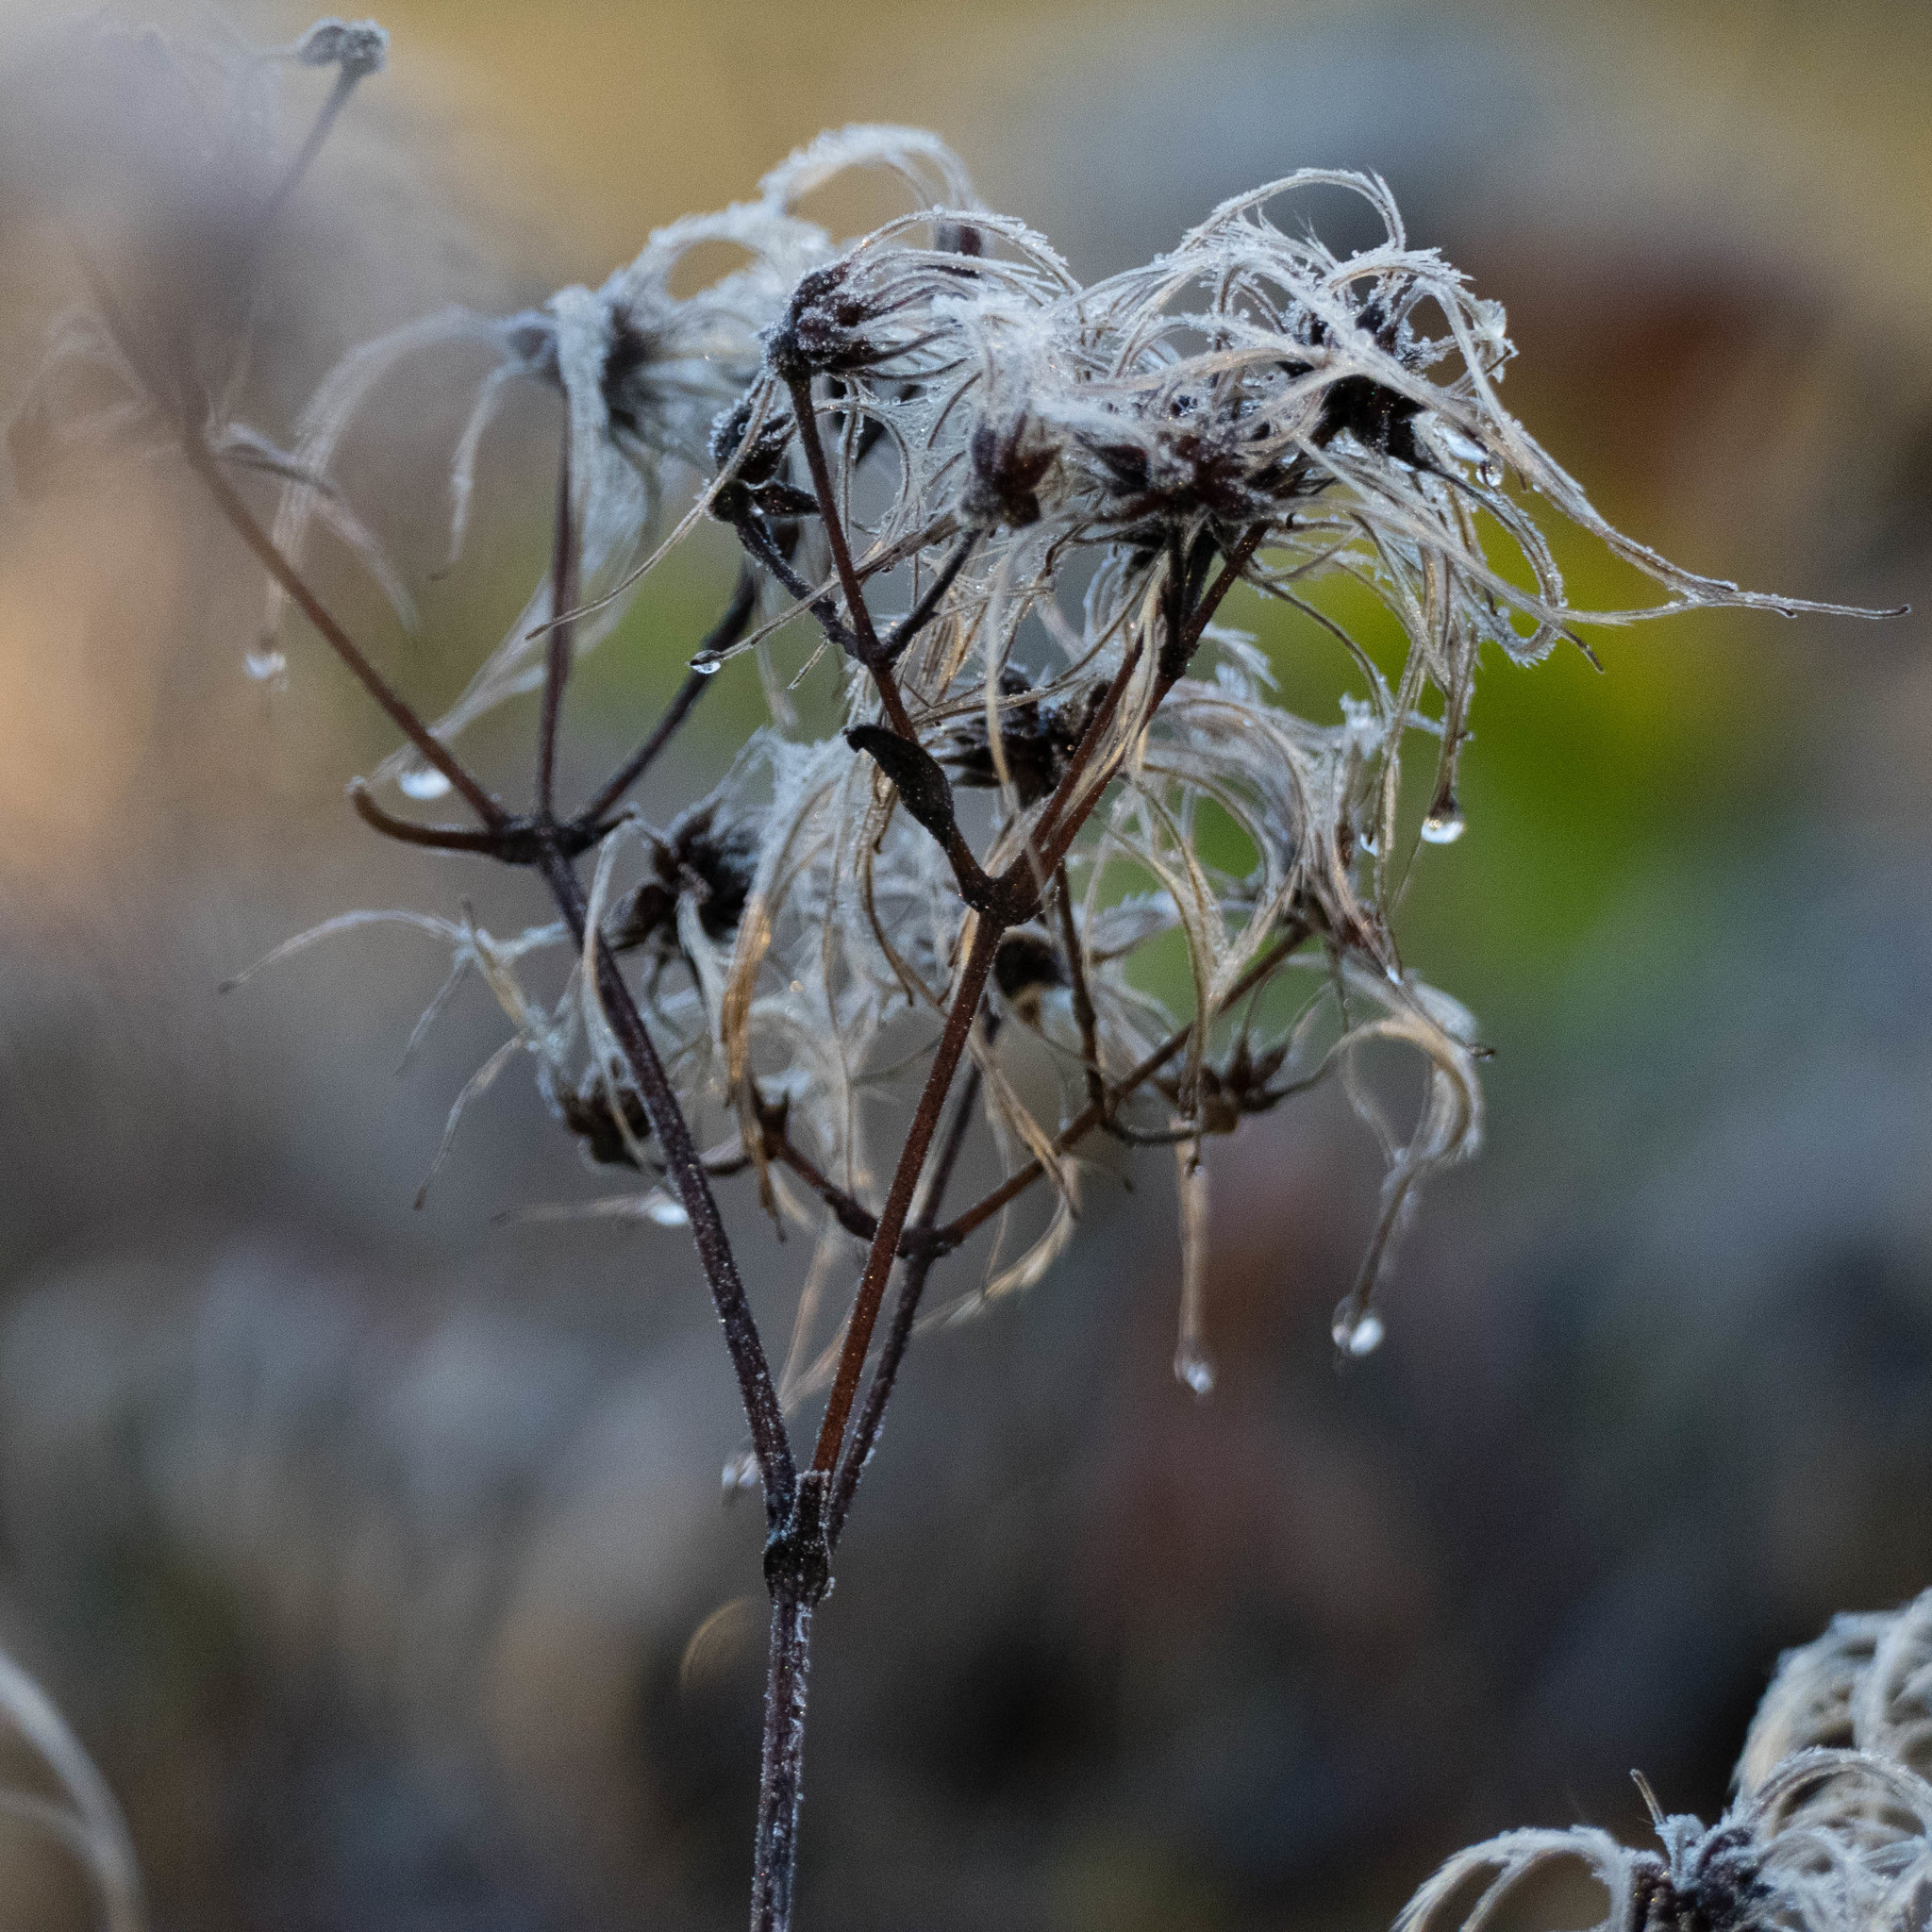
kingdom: Plantae
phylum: Tracheophyta
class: Magnoliopsida
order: Ranunculales
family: Ranunculaceae
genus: Clematis
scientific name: Clematis vitalba
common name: Evergreen clematis
